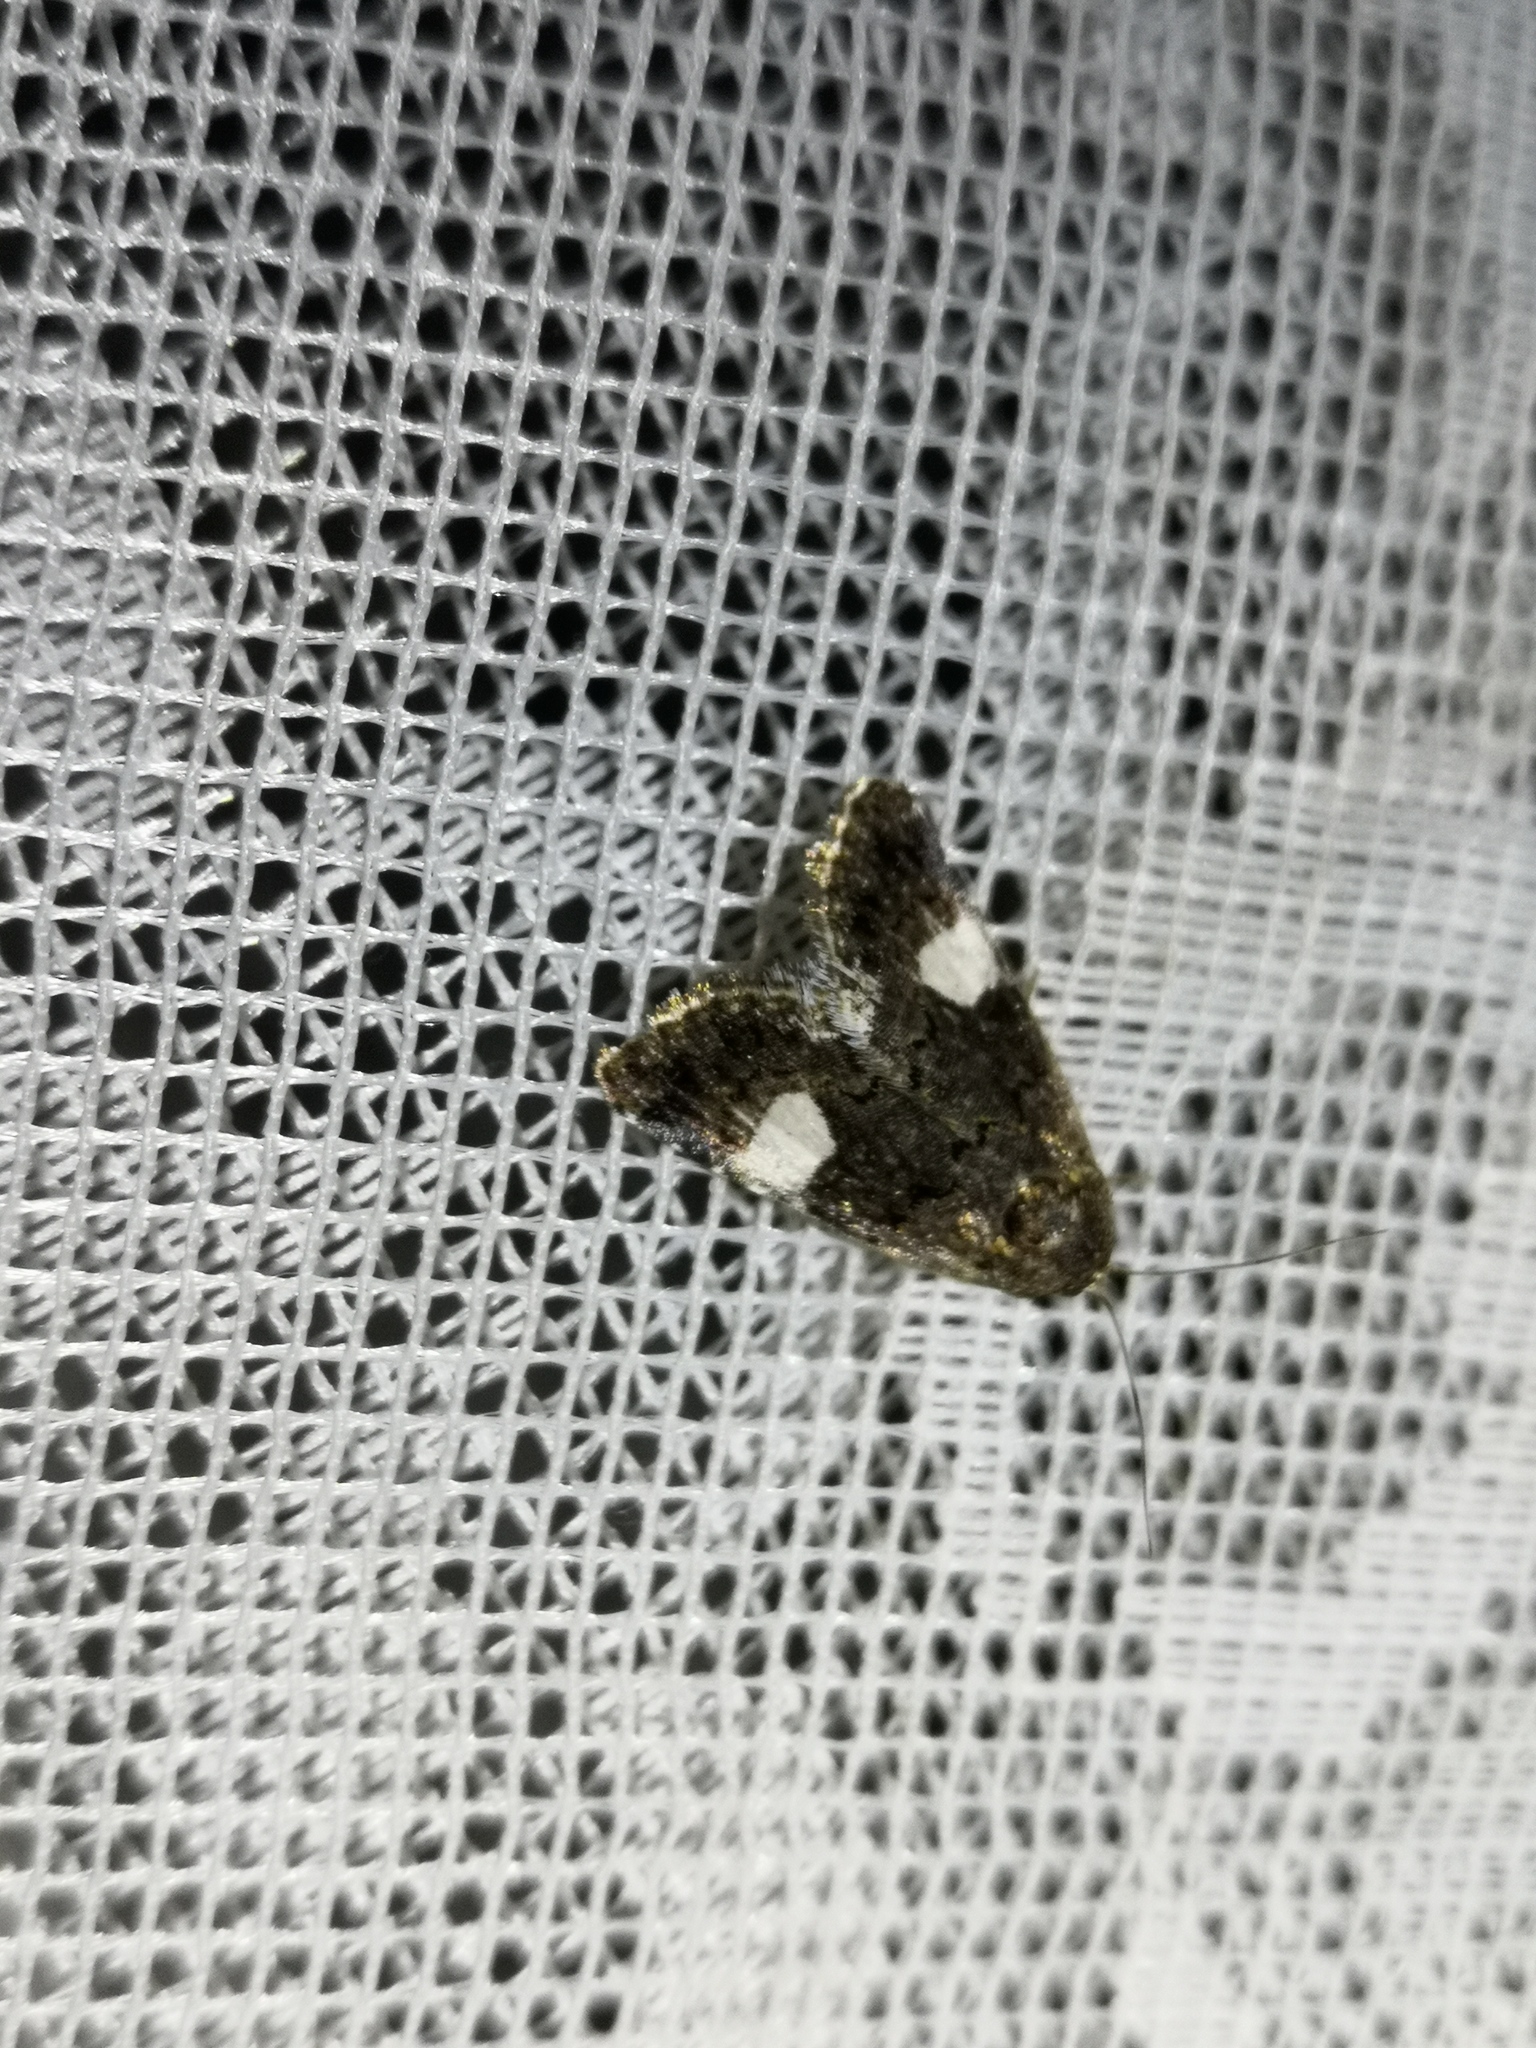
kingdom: Animalia
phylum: Arthropoda
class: Insecta
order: Lepidoptera
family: Erebidae
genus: Tyta
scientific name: Tyta luctuosa
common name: Four-spotted
